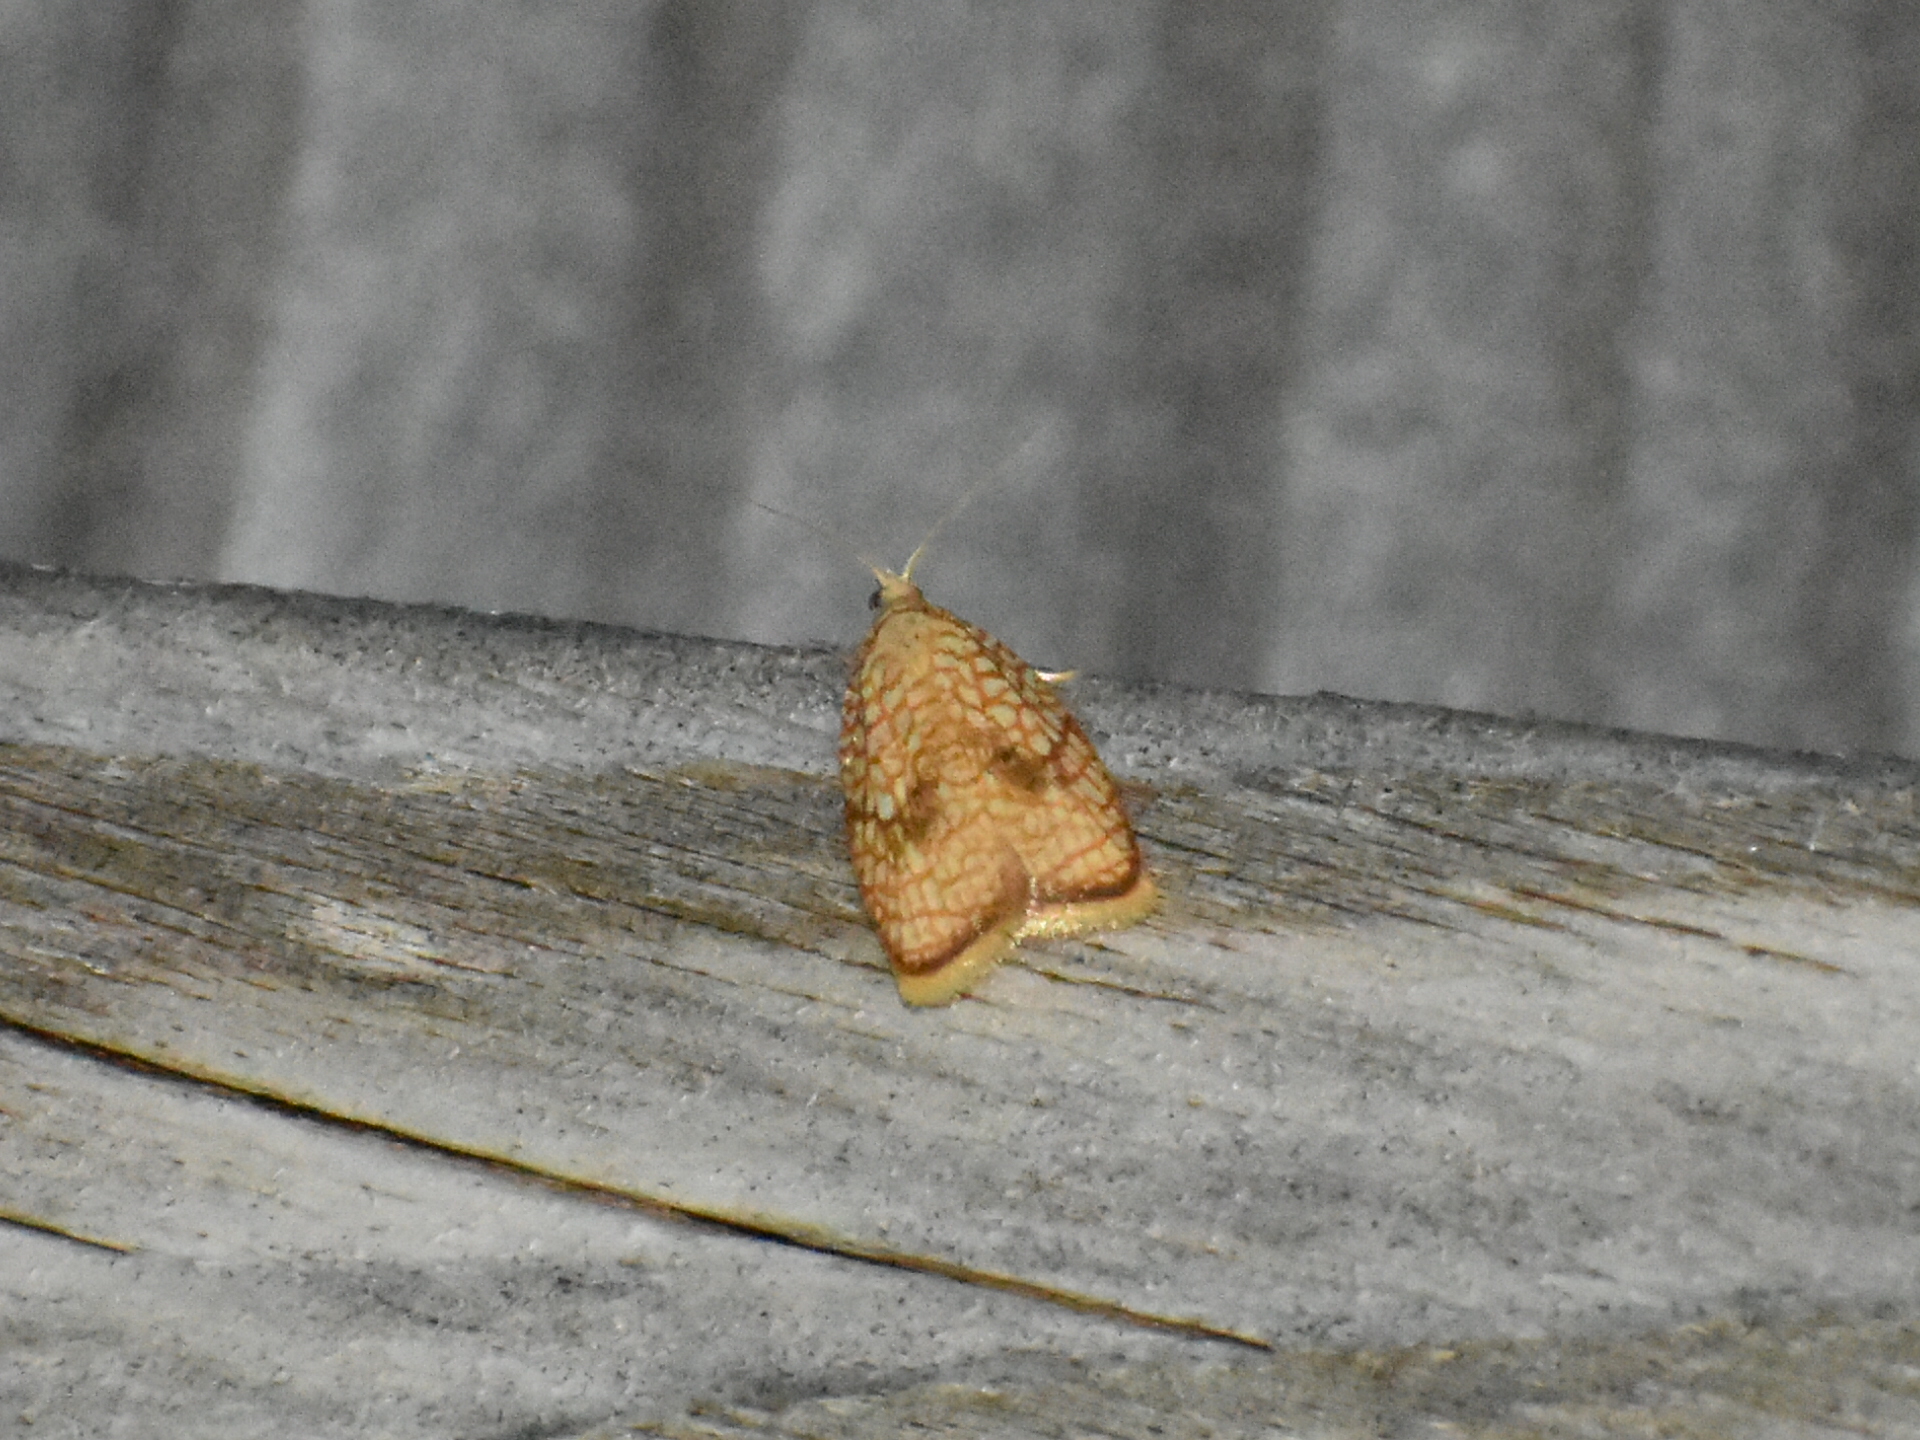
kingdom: Animalia
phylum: Arthropoda
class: Insecta
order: Lepidoptera
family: Tortricidae
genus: Acleris
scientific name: Acleris forsskaleana
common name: Maple button
